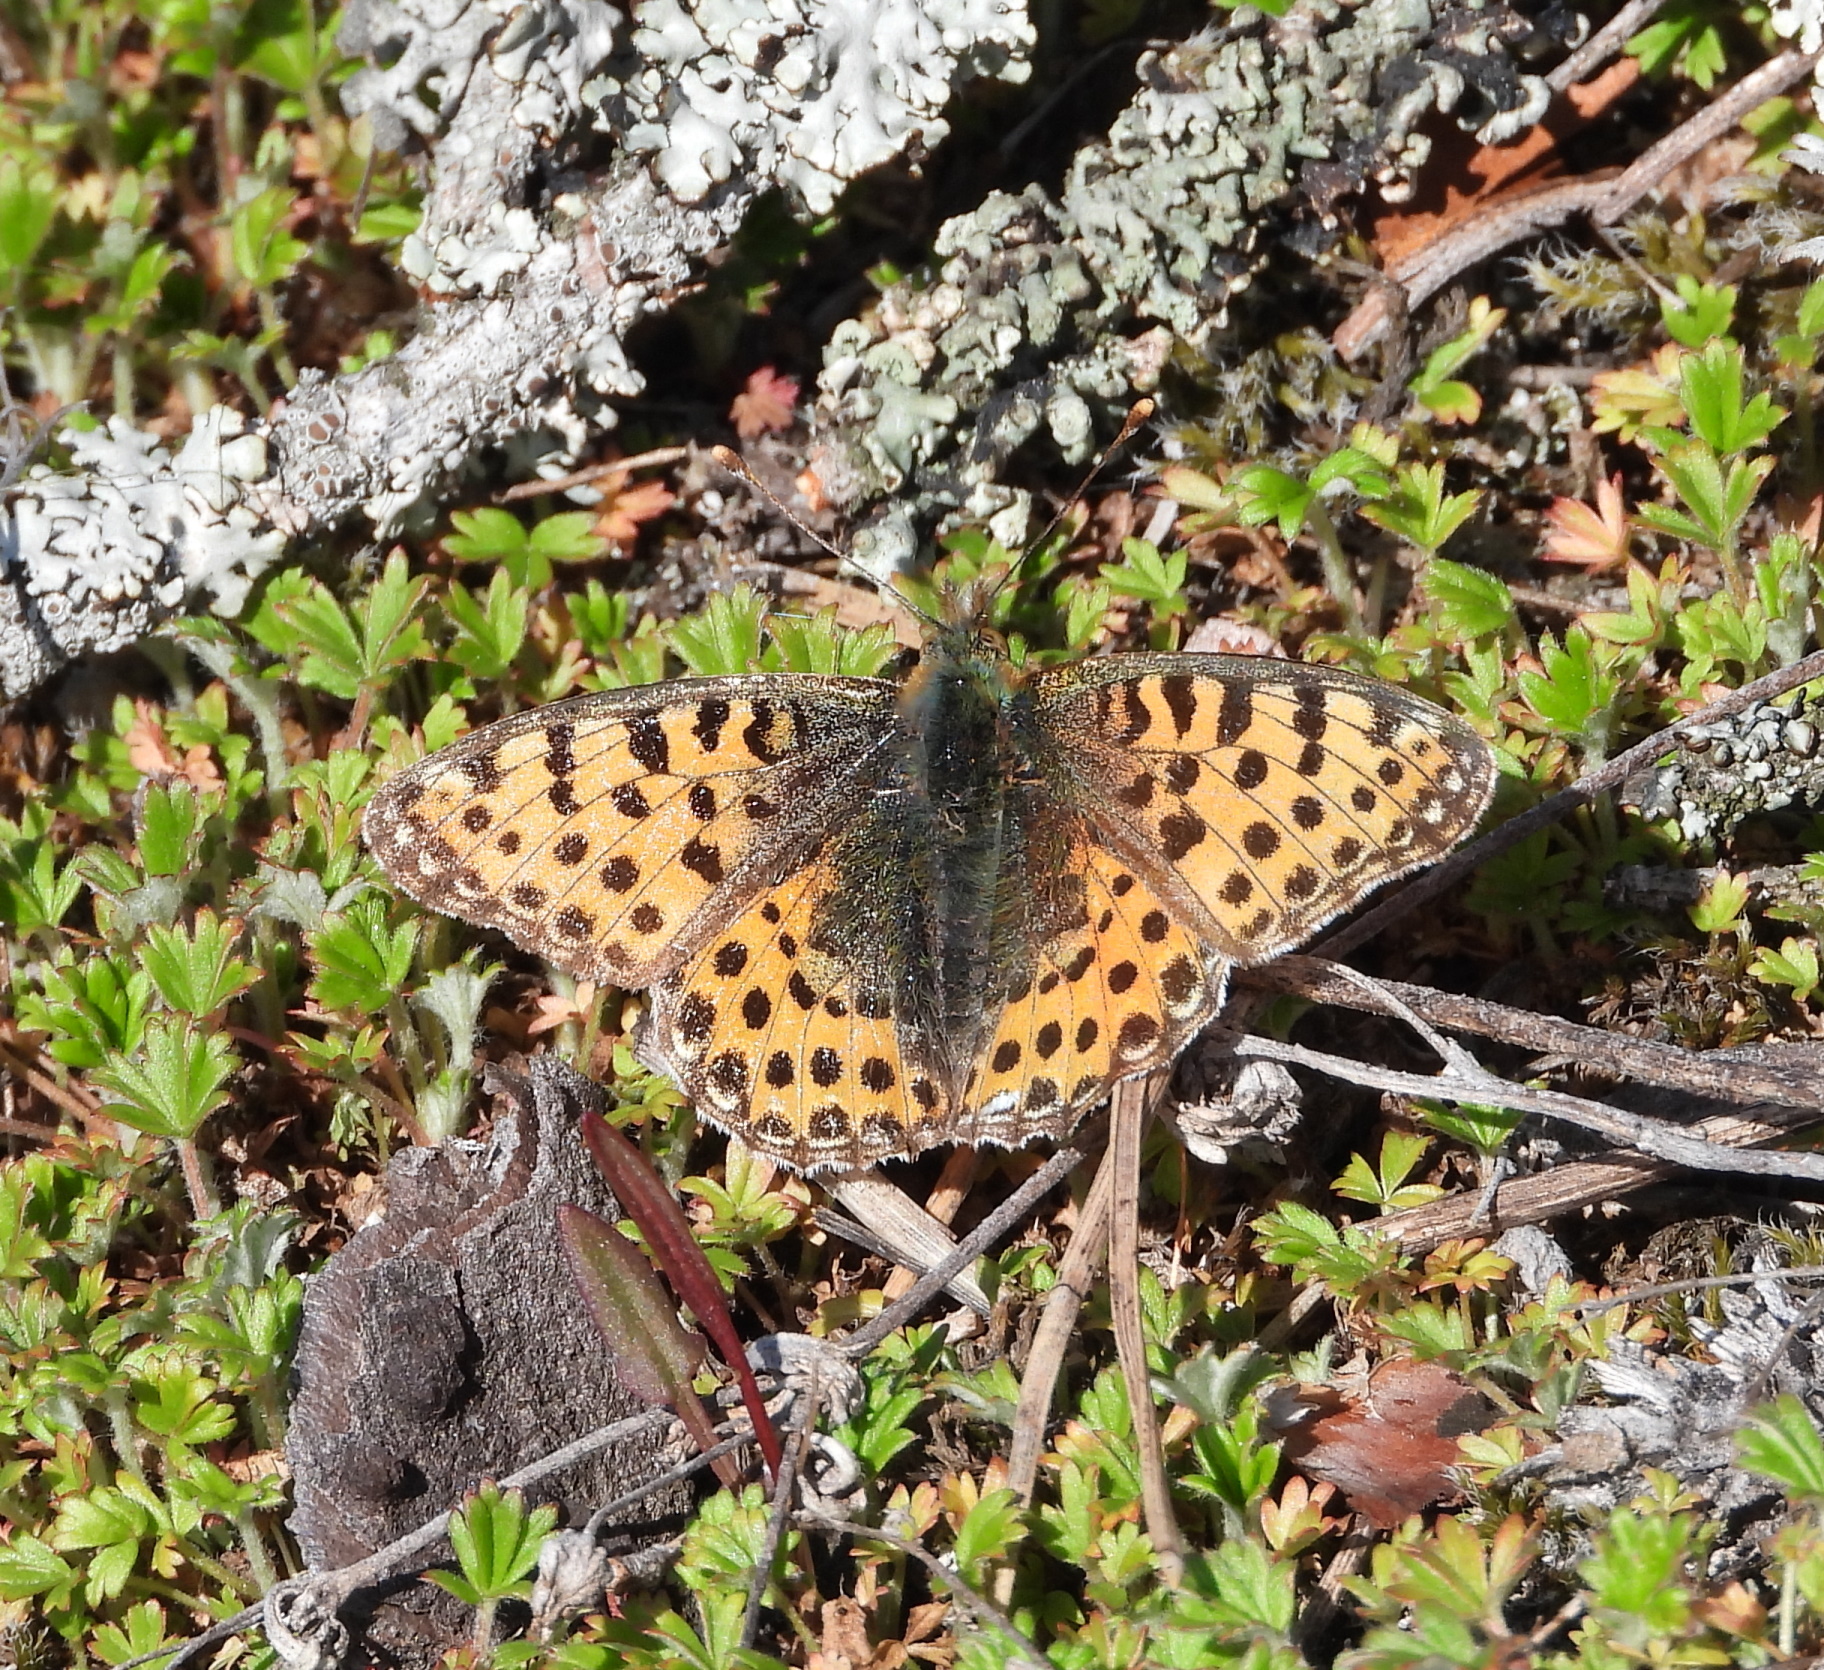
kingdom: Animalia
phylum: Arthropoda
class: Insecta
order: Lepidoptera
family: Nymphalidae
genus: Issoria
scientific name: Issoria lathonia
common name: Queen of spain fritillary
